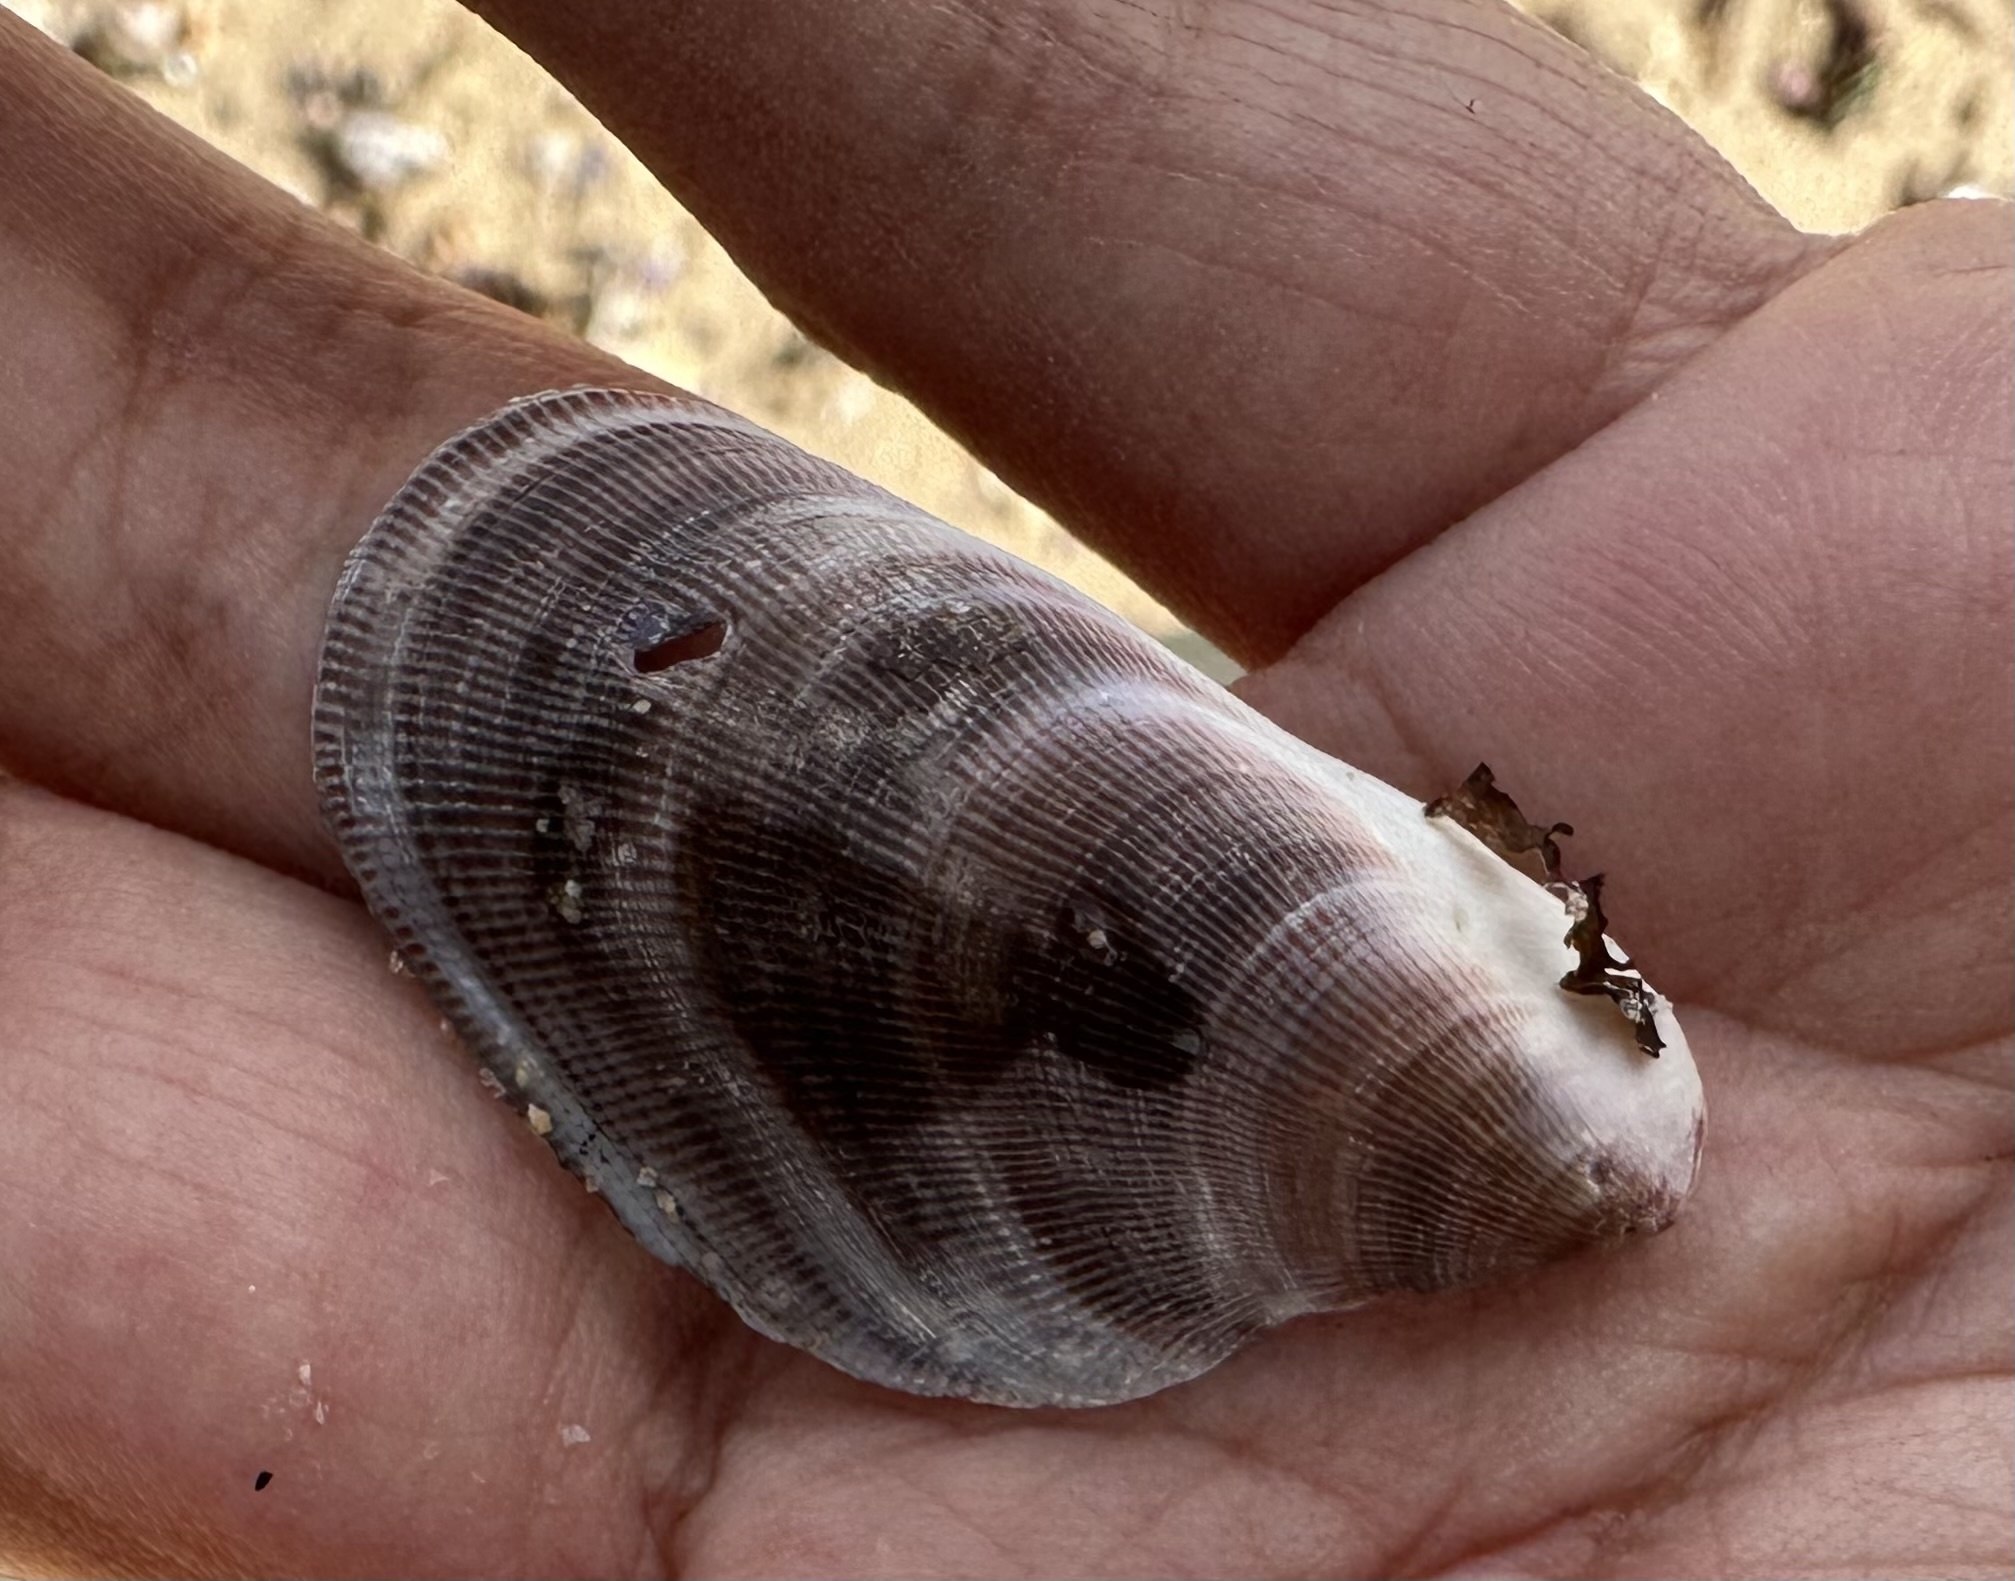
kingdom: Animalia
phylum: Mollusca
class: Bivalvia
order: Mytilida
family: Mytilidae
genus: Trichomya
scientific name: Trichomya hirsuta
